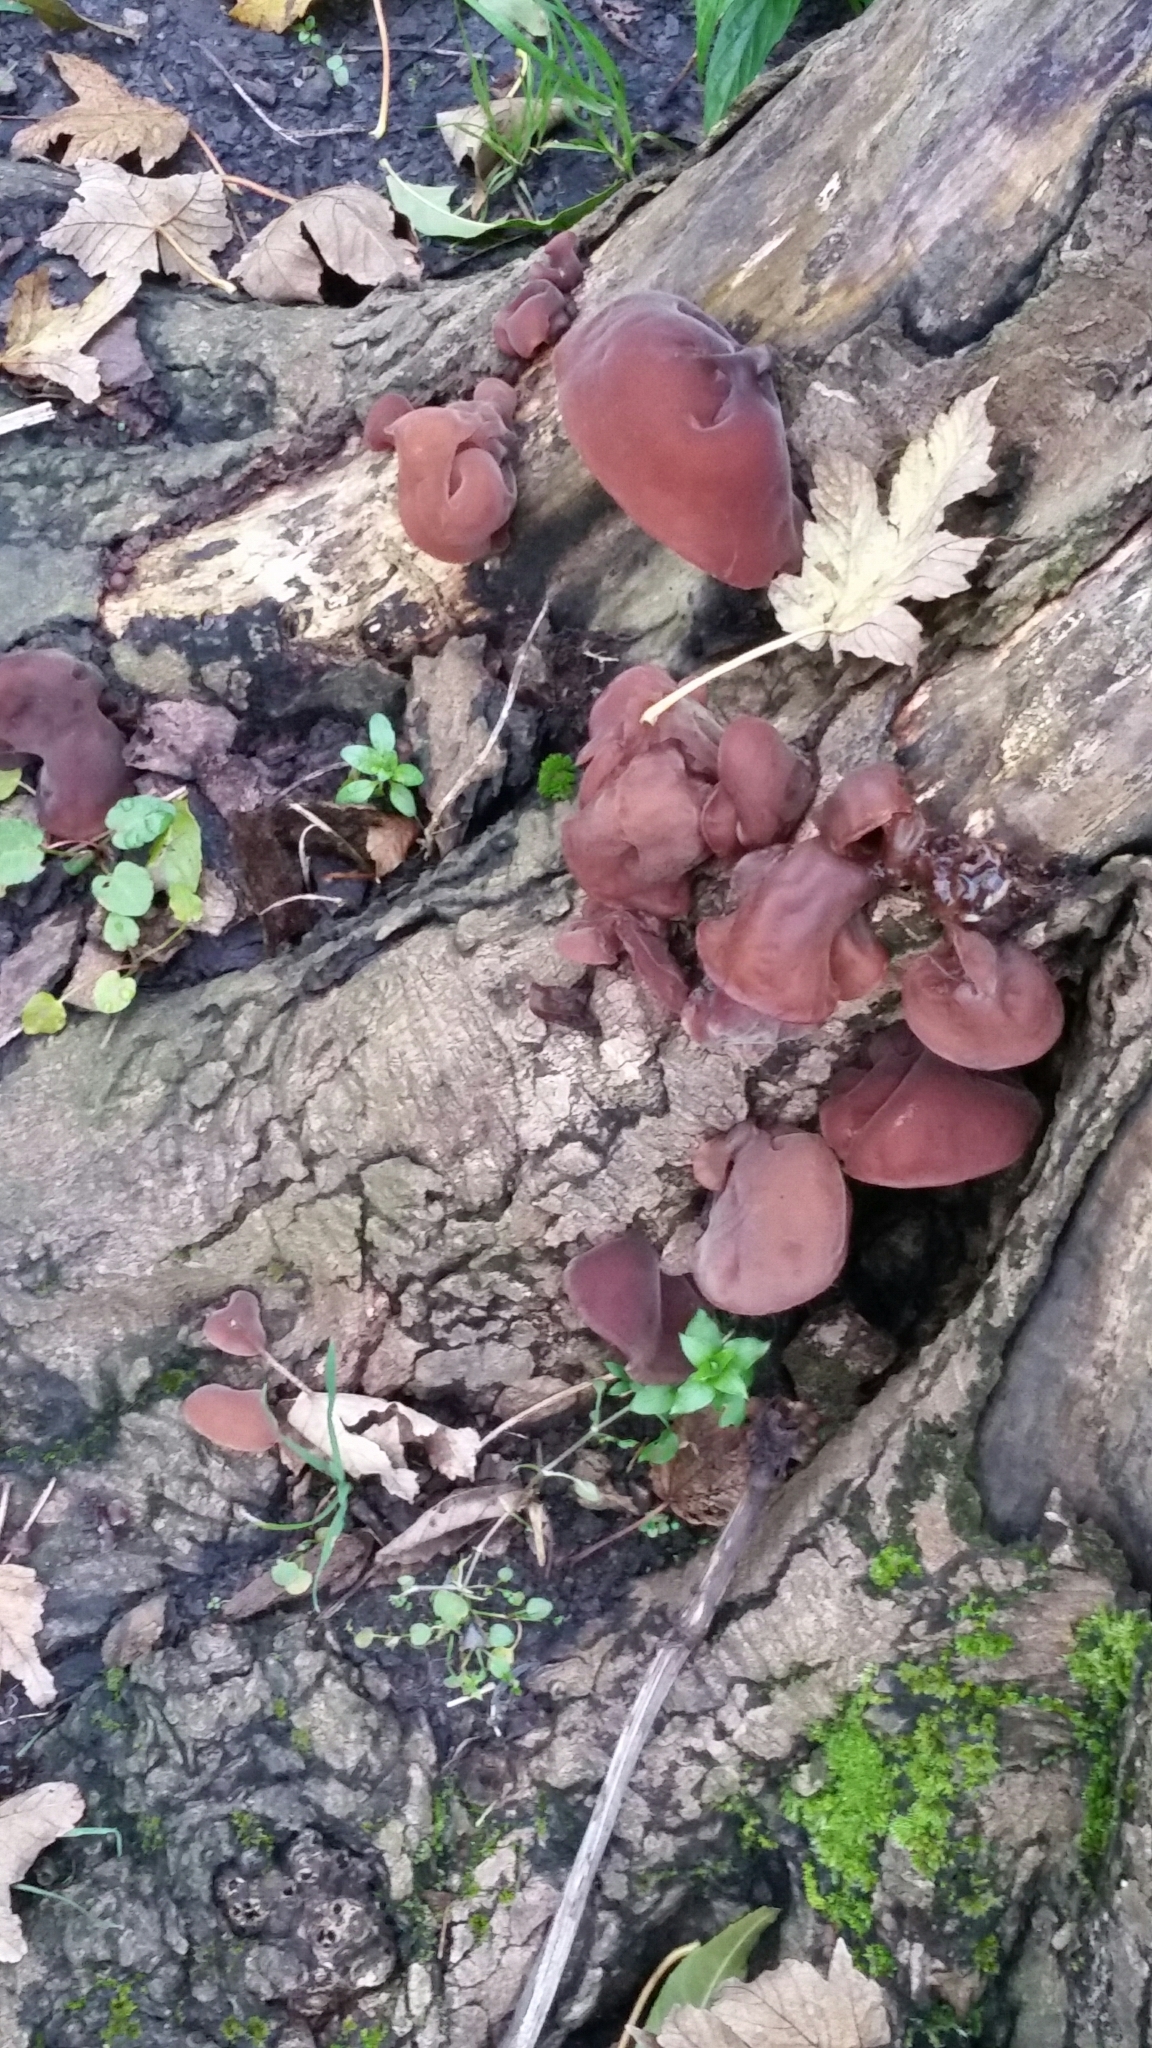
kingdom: Fungi
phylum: Basidiomycota
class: Agaricomycetes
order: Auriculariales
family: Auriculariaceae
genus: Auricularia
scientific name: Auricularia auricula-judae
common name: Jelly ear
